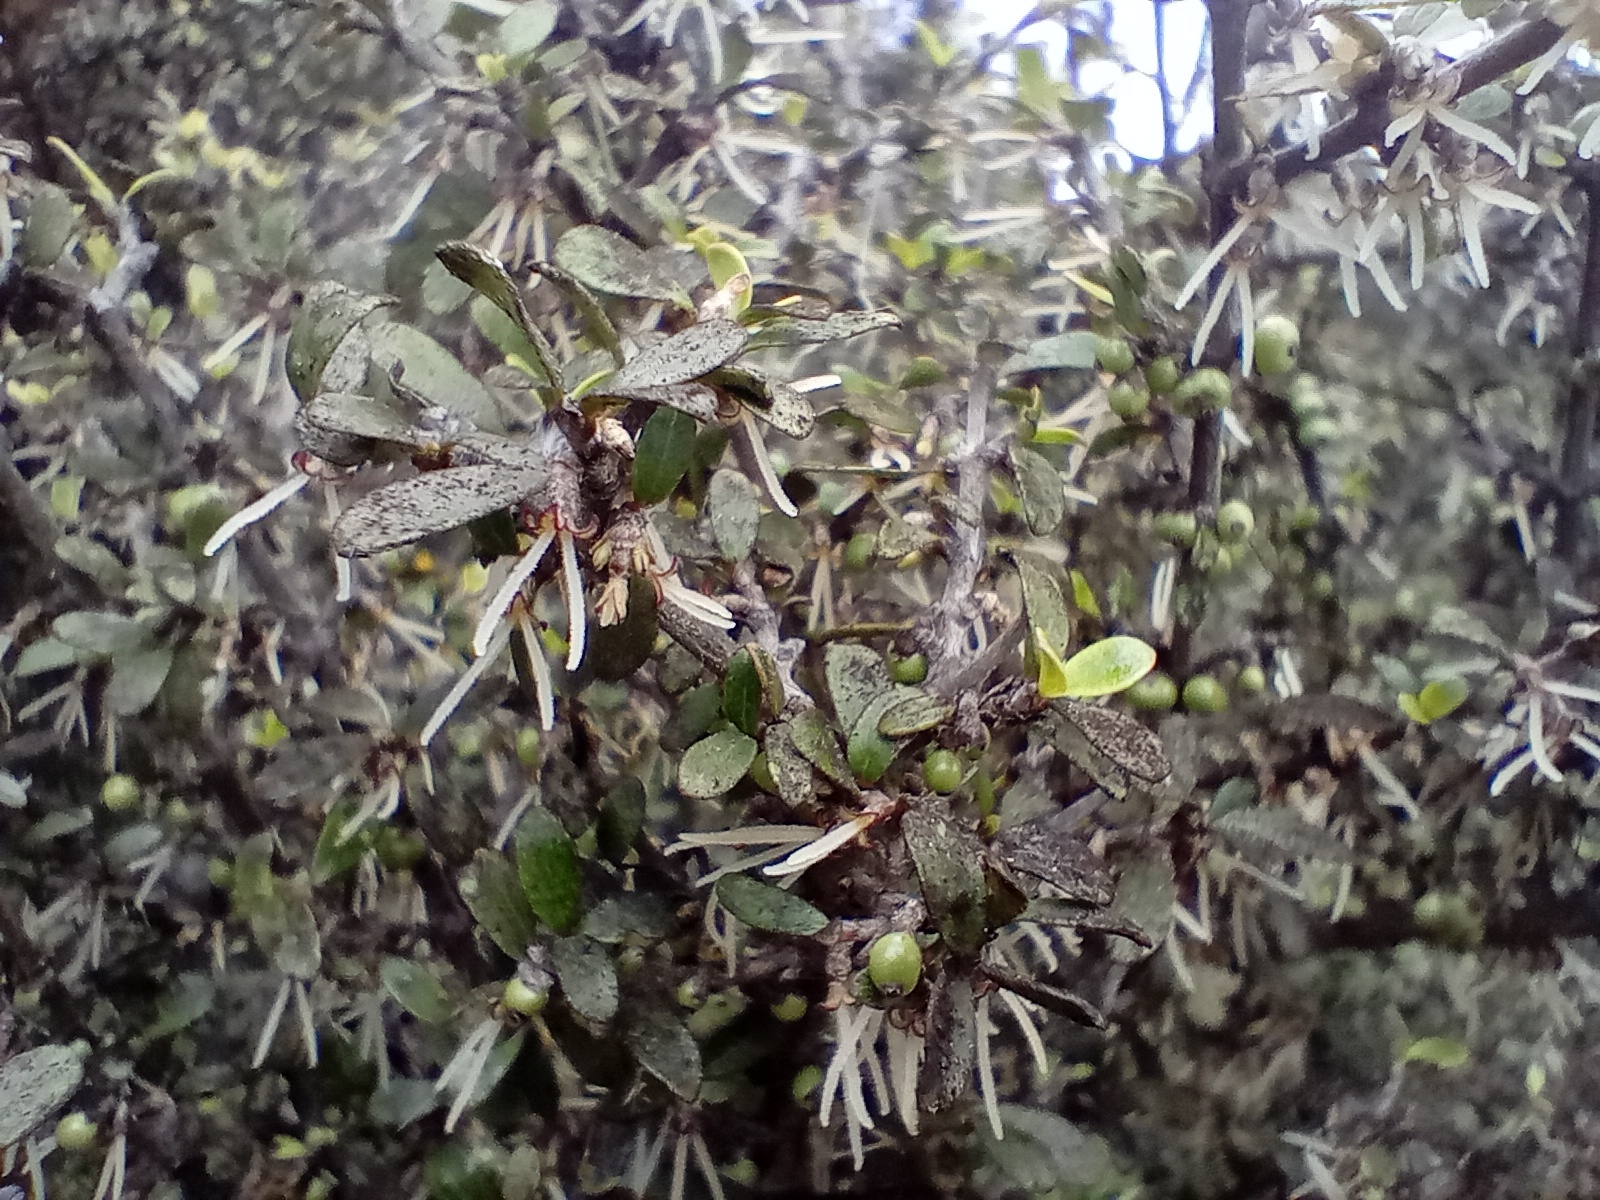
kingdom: Plantae
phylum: Tracheophyta
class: Magnoliopsida
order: Gentianales
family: Rubiaceae
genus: Coprosma
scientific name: Coprosma dumosa
